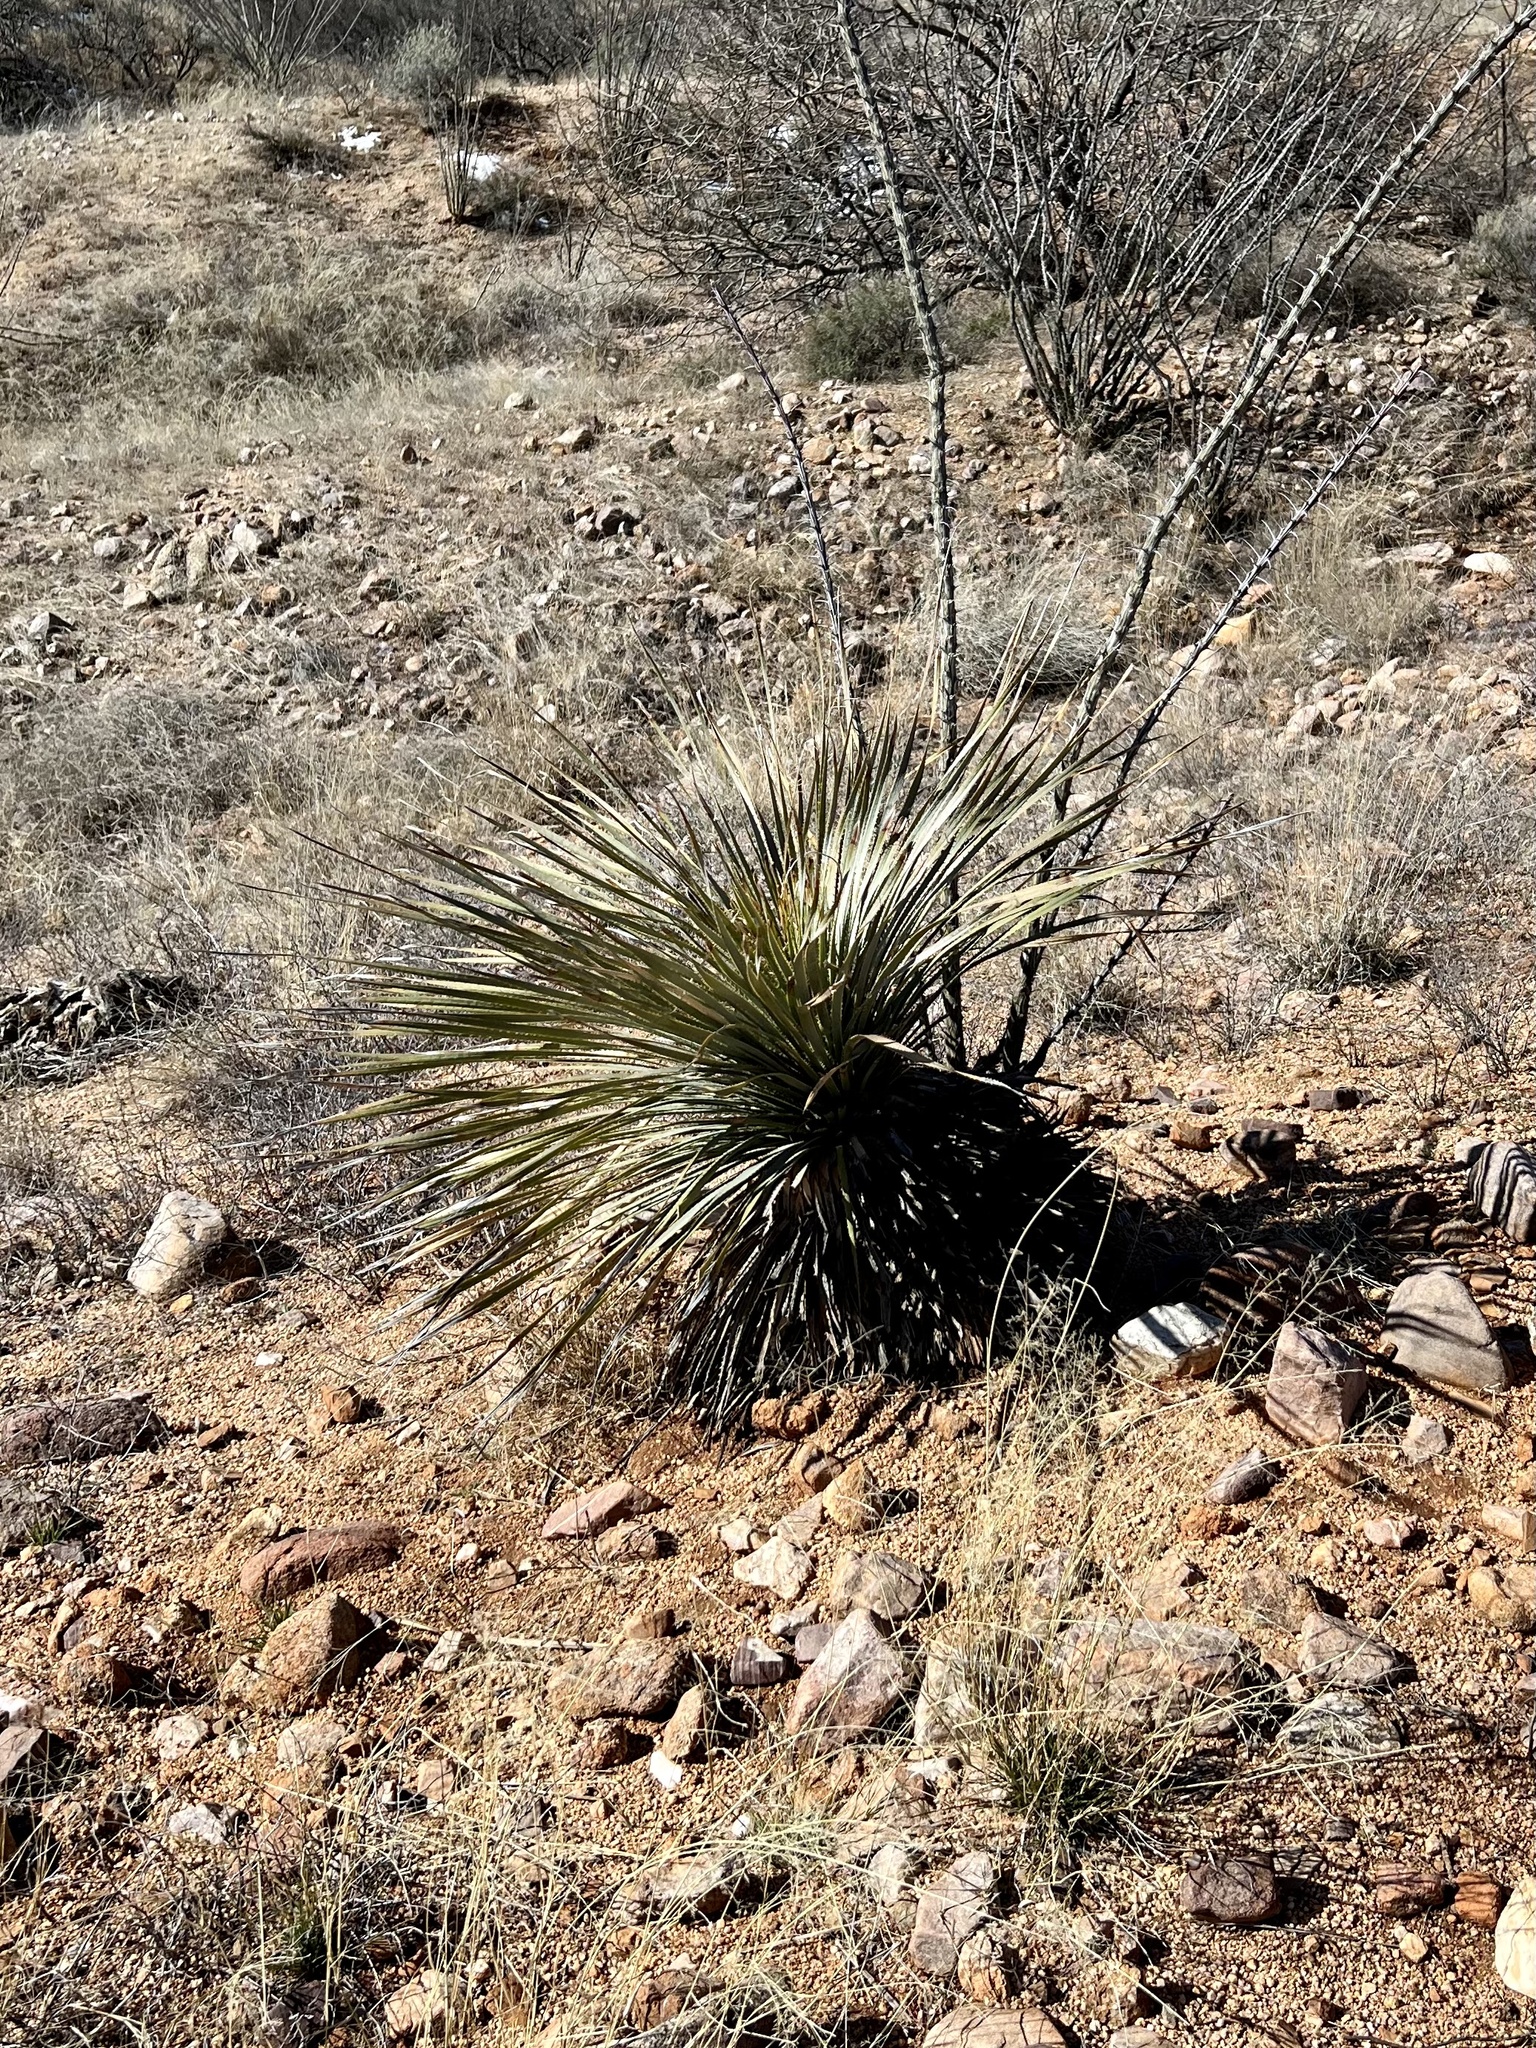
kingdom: Plantae
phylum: Tracheophyta
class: Liliopsida
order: Asparagales
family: Asparagaceae
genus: Dasylirion
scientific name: Dasylirion wheeleri
